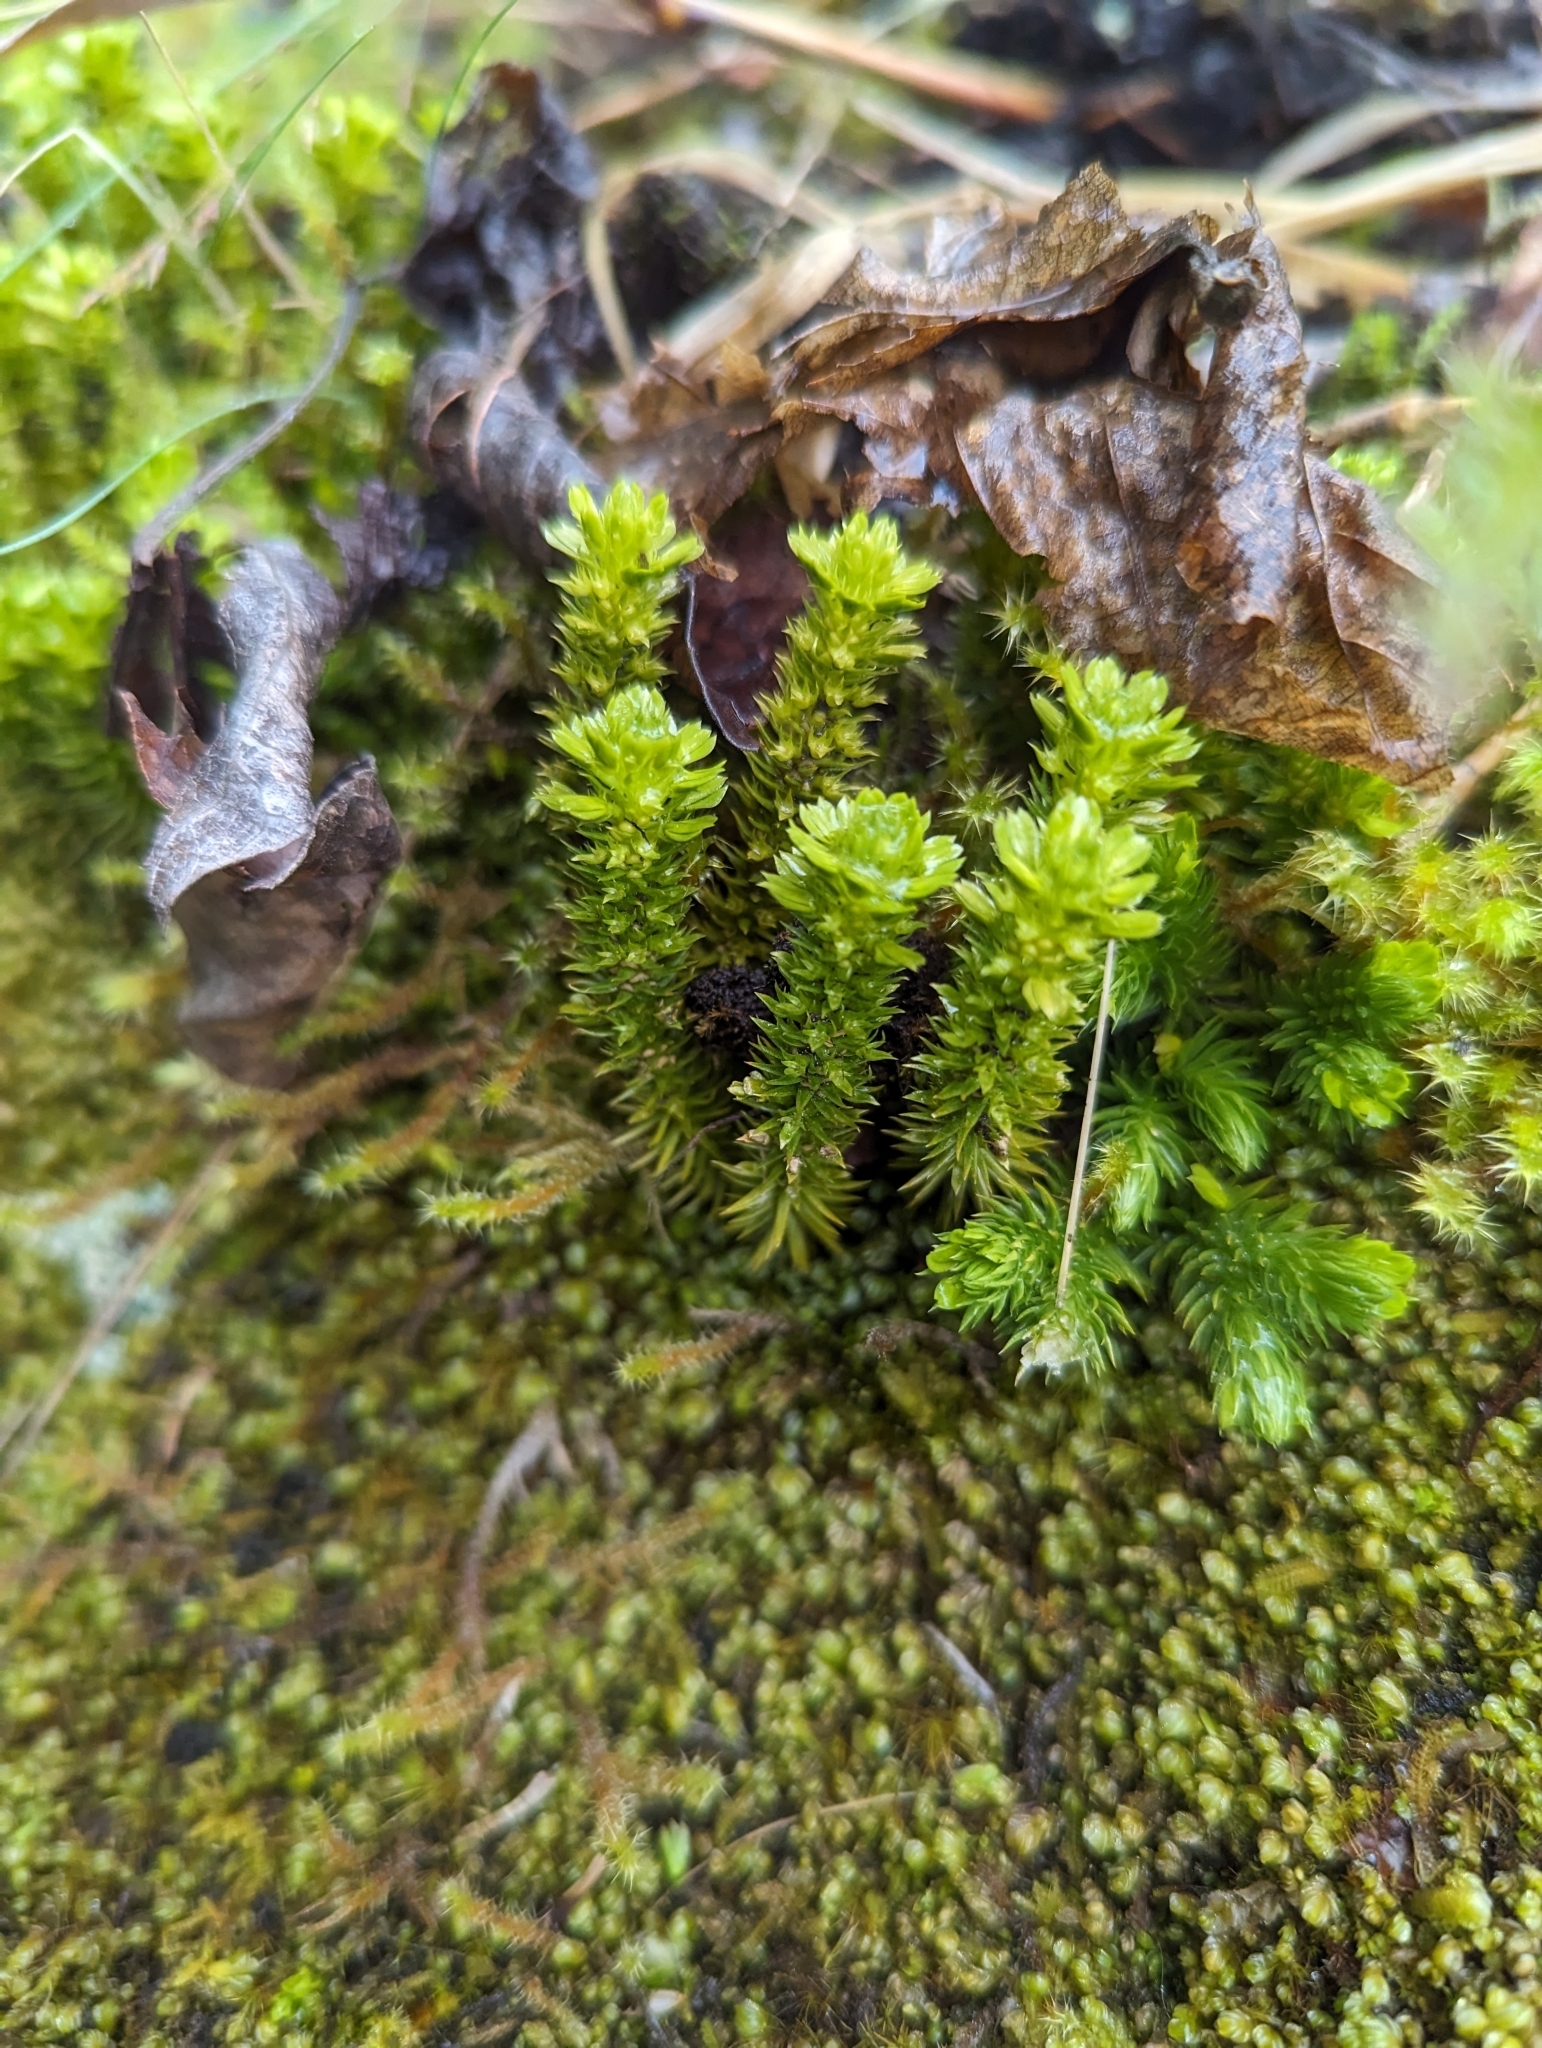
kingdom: Plantae
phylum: Tracheophyta
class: Lycopodiopsida
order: Lycopodiales
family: Lycopodiaceae
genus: Huperzia
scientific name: Huperzia continentalis
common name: Continental firmoss
